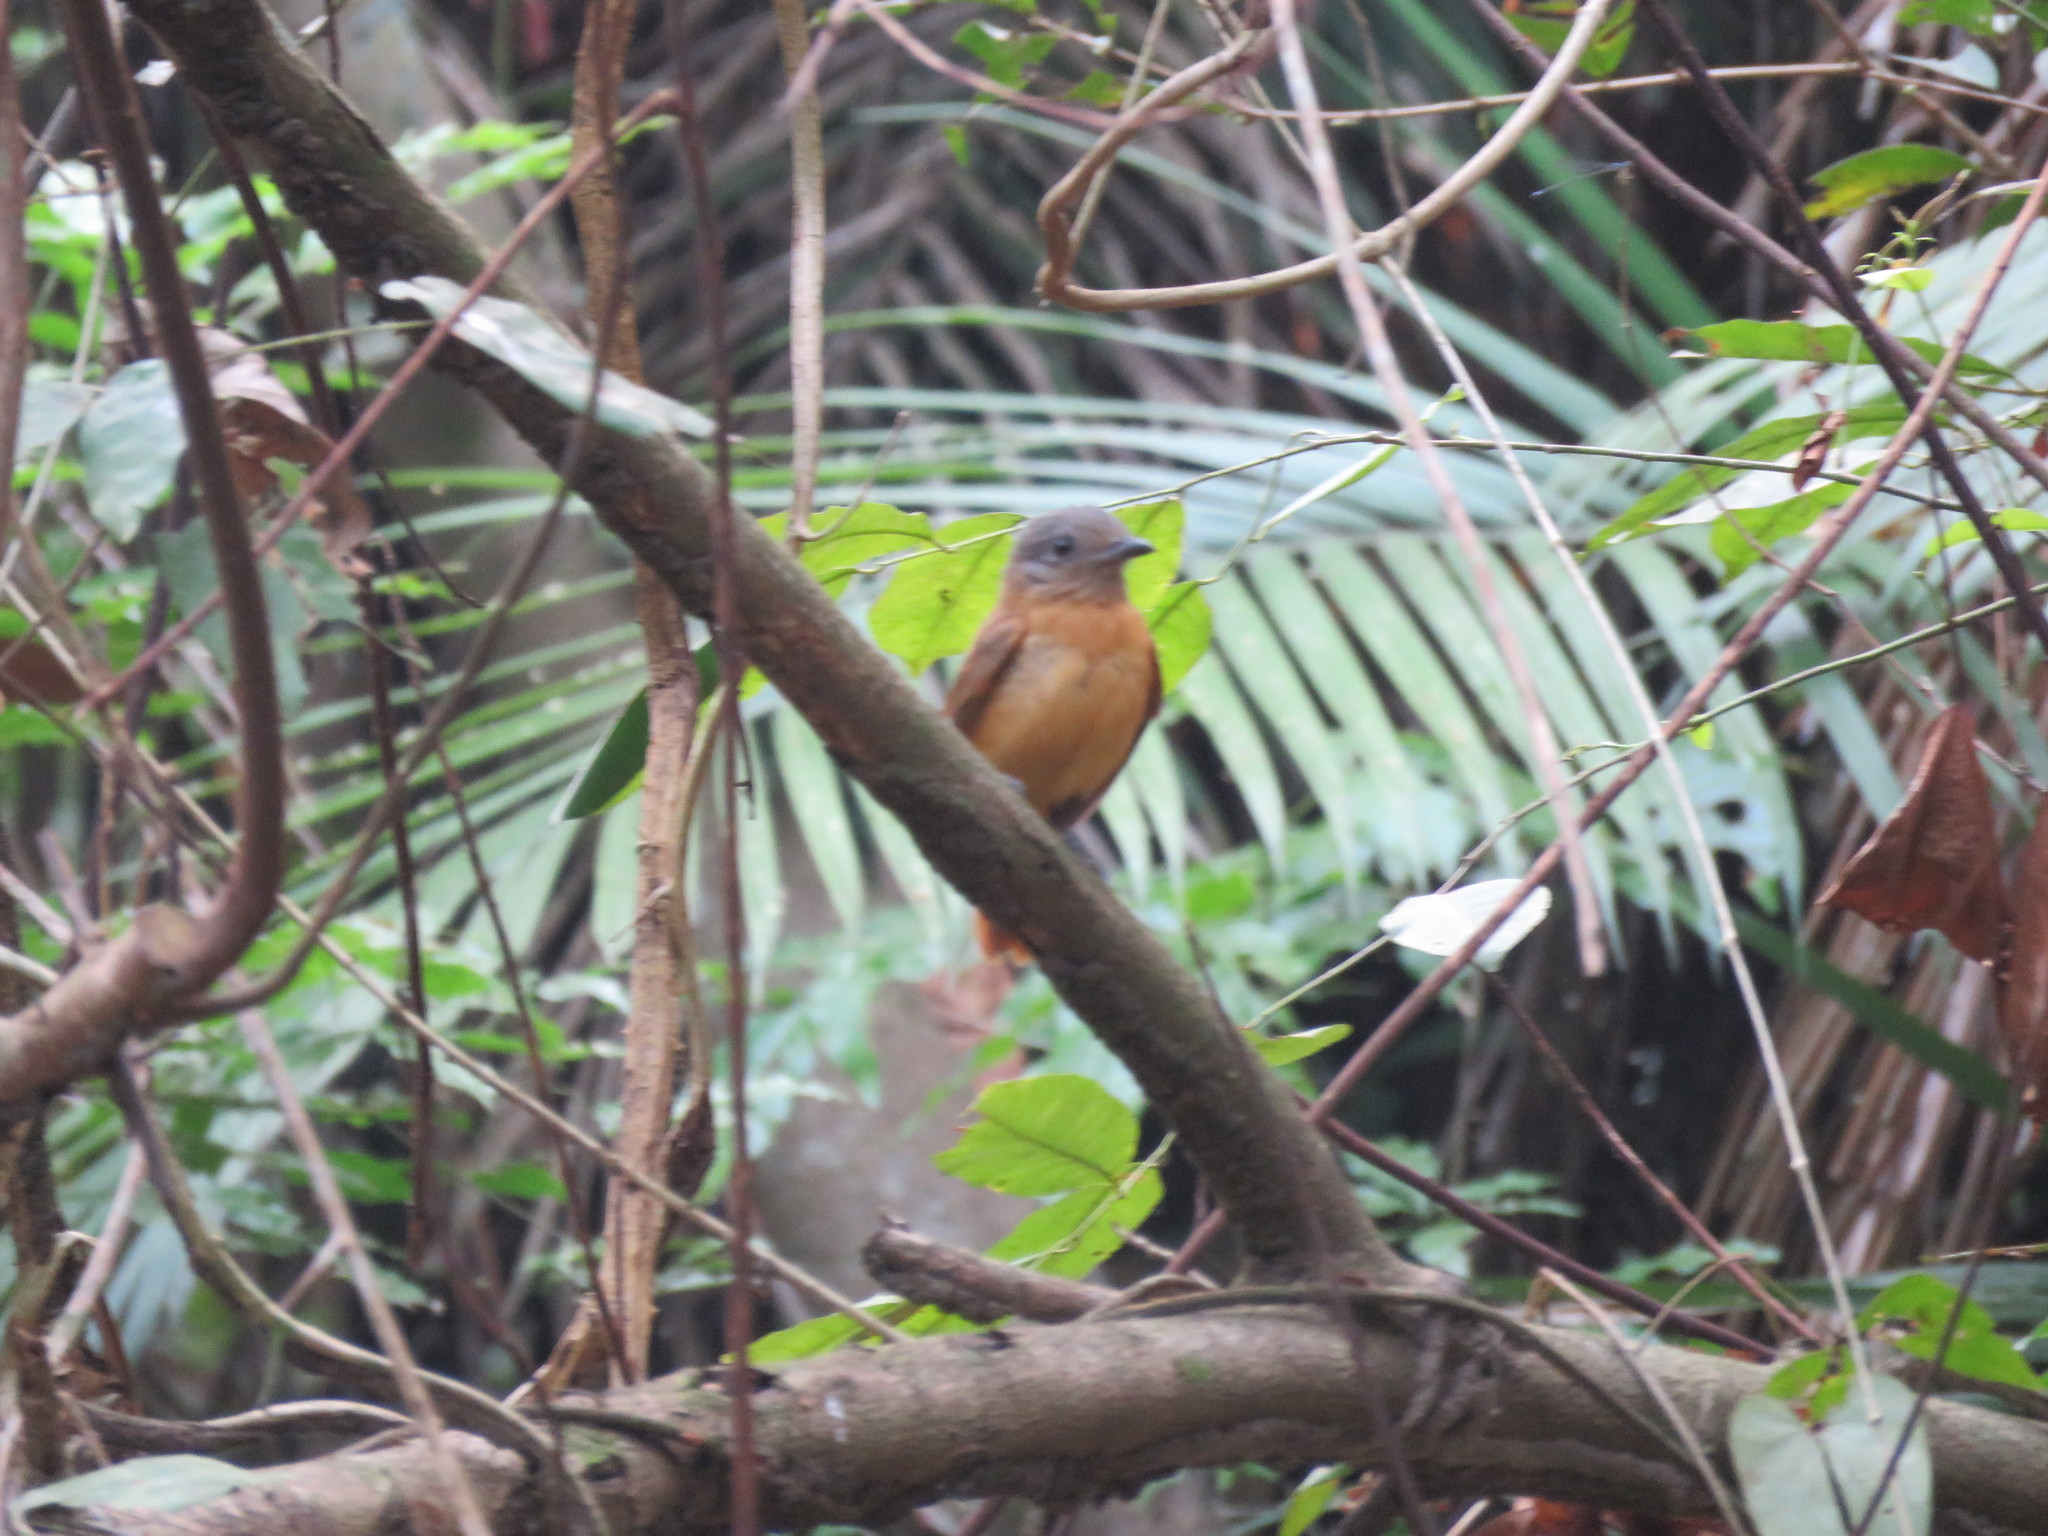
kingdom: Animalia
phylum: Chordata
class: Aves
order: Passeriformes
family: Cotingidae
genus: Schiffornis
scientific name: Schiffornis major
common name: Varzea schiffornis
